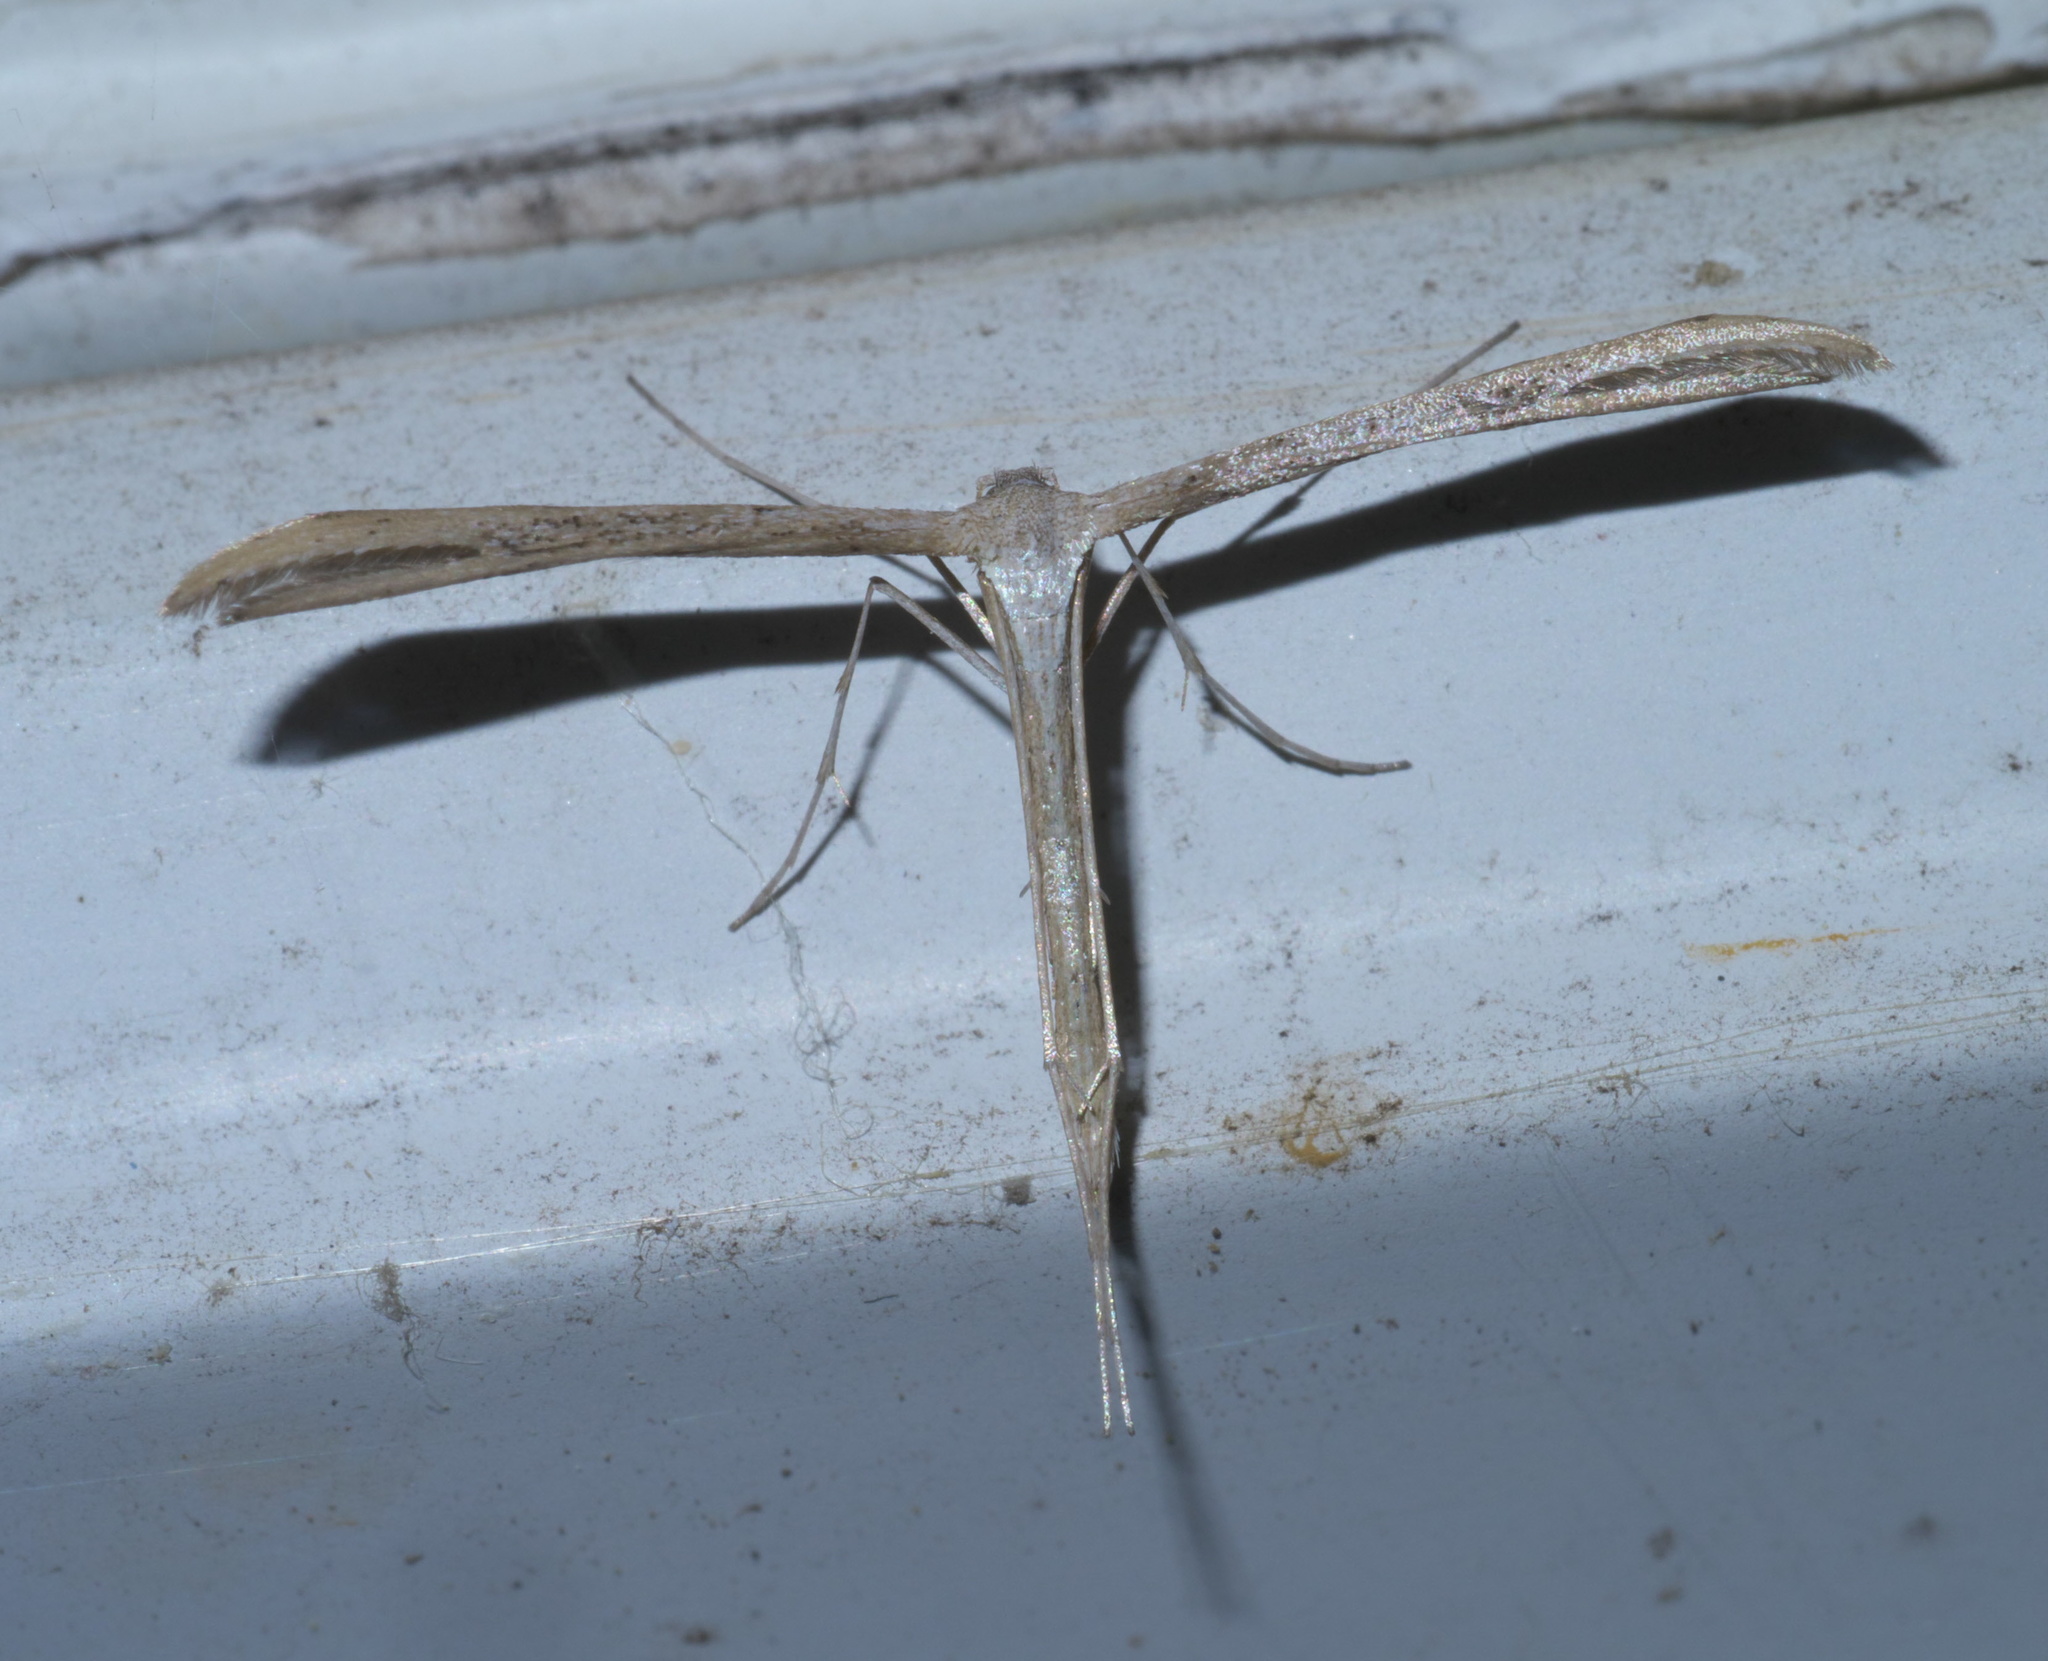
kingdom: Animalia
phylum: Arthropoda
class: Insecta
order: Lepidoptera
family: Pterophoridae
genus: Emmelina
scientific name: Emmelina monodactyla
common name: Common plume
